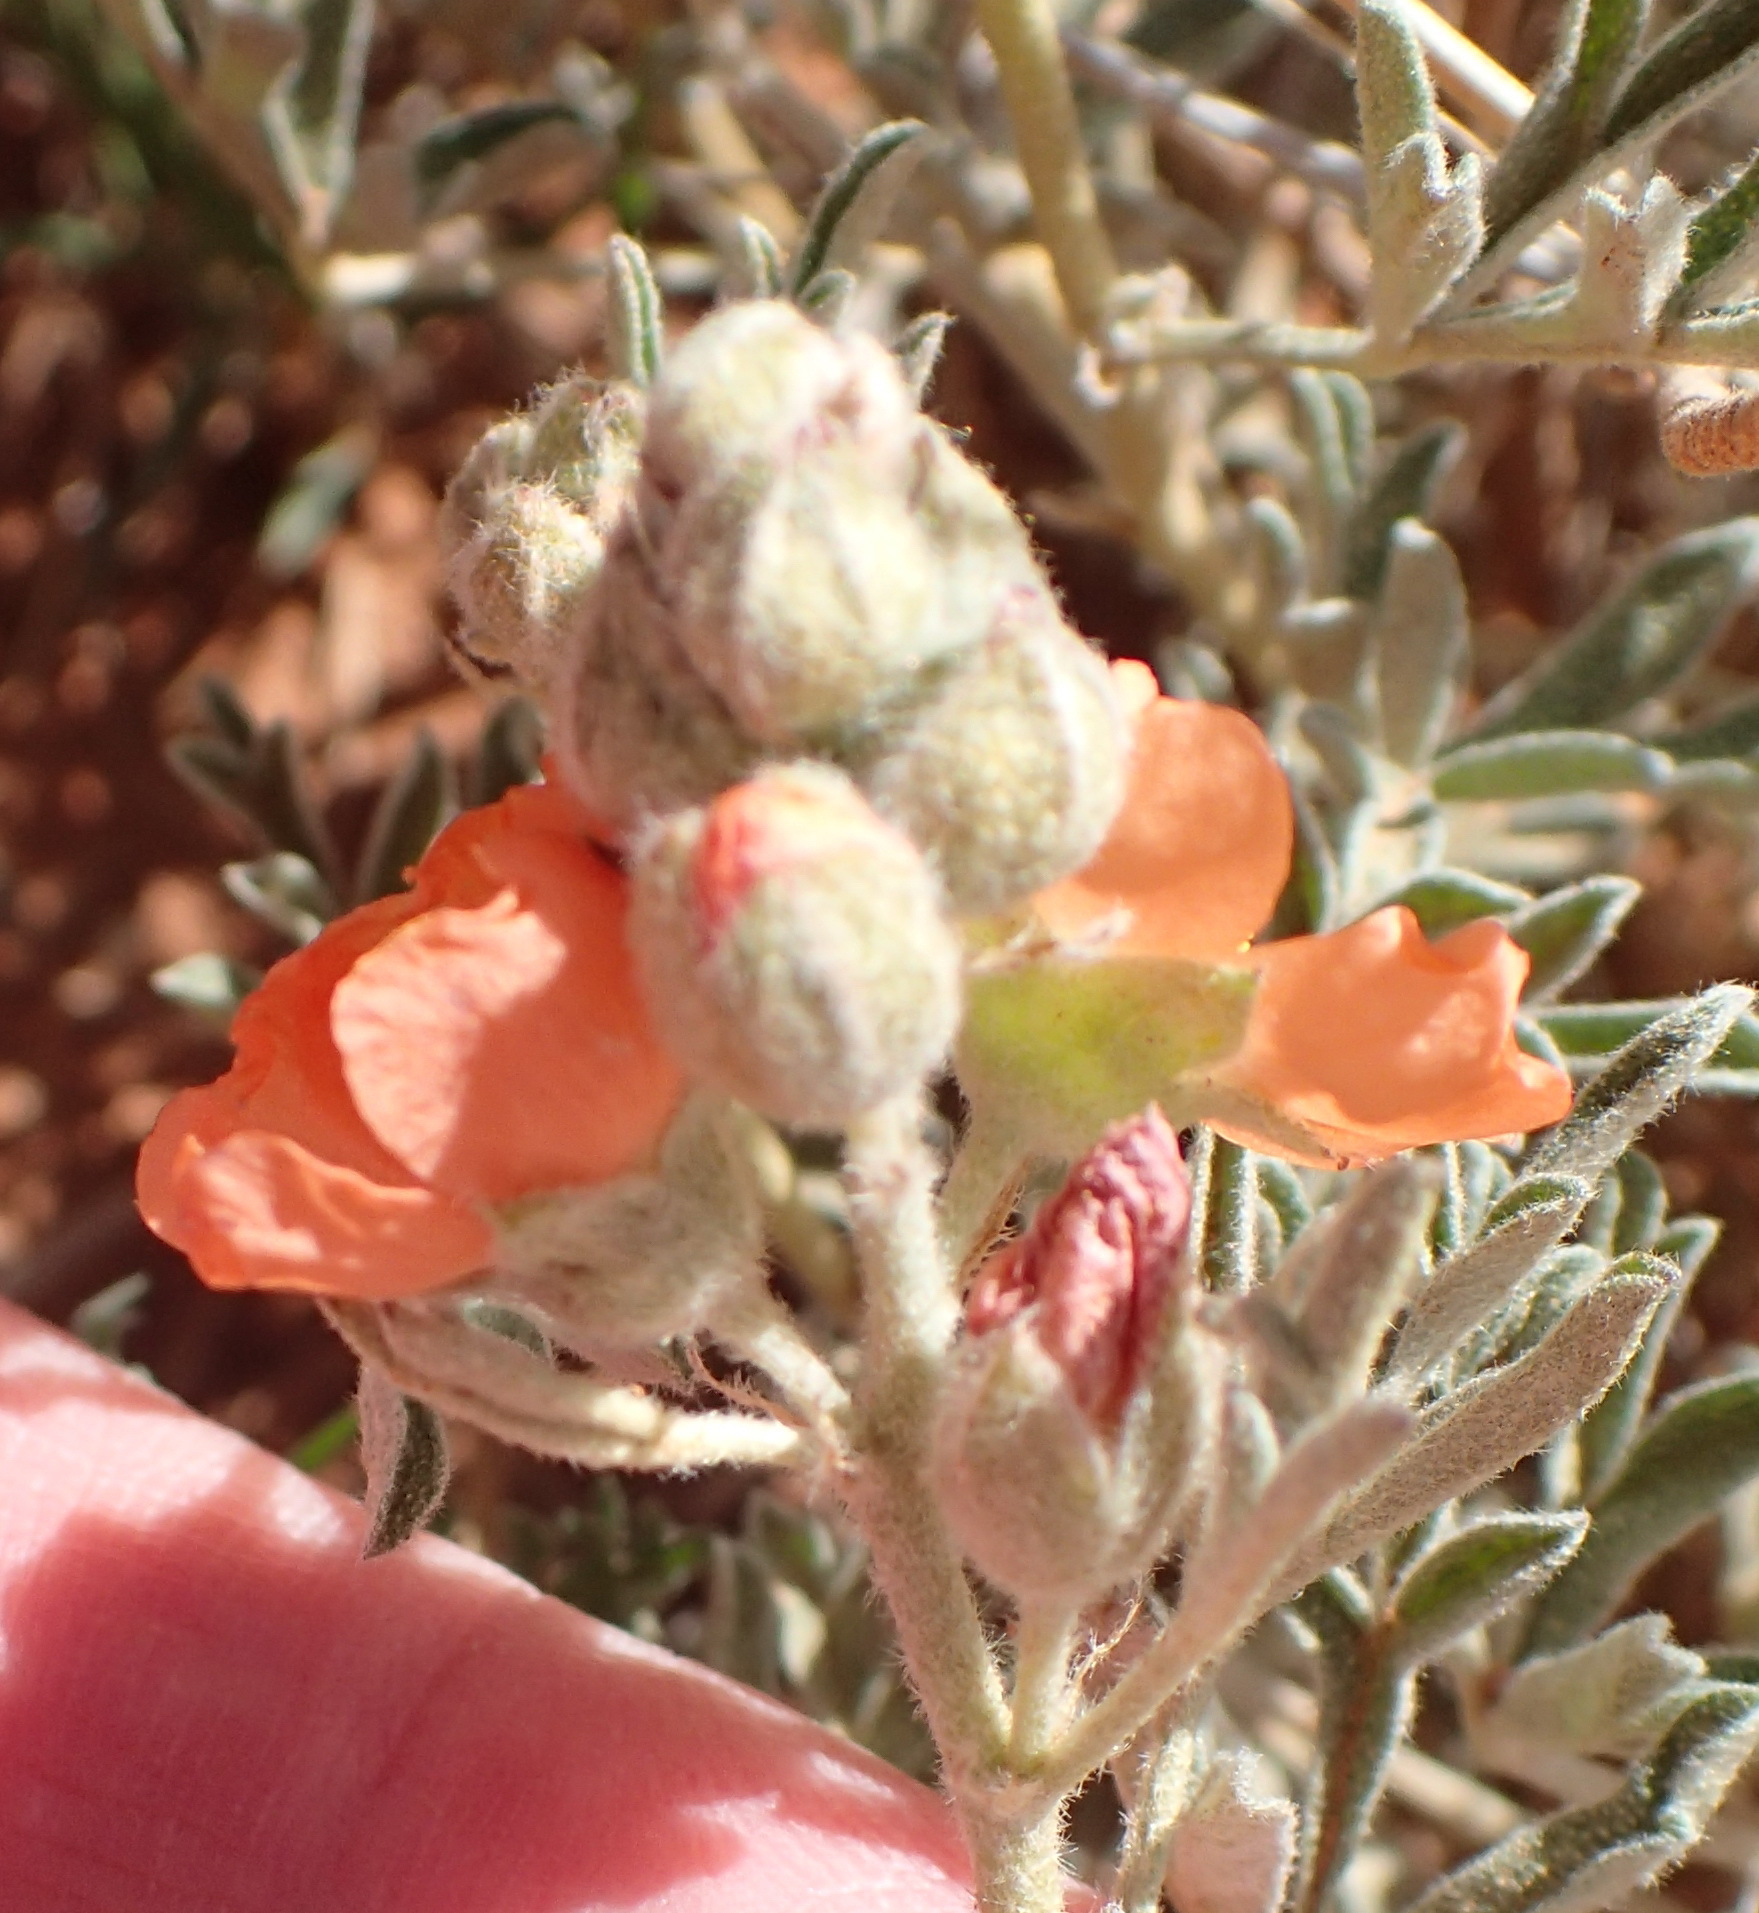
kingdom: Plantae
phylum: Tracheophyta
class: Magnoliopsida
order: Malvales
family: Malvaceae
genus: Sphaeralcea
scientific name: Sphaeralcea coccinea
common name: Moss-rose
